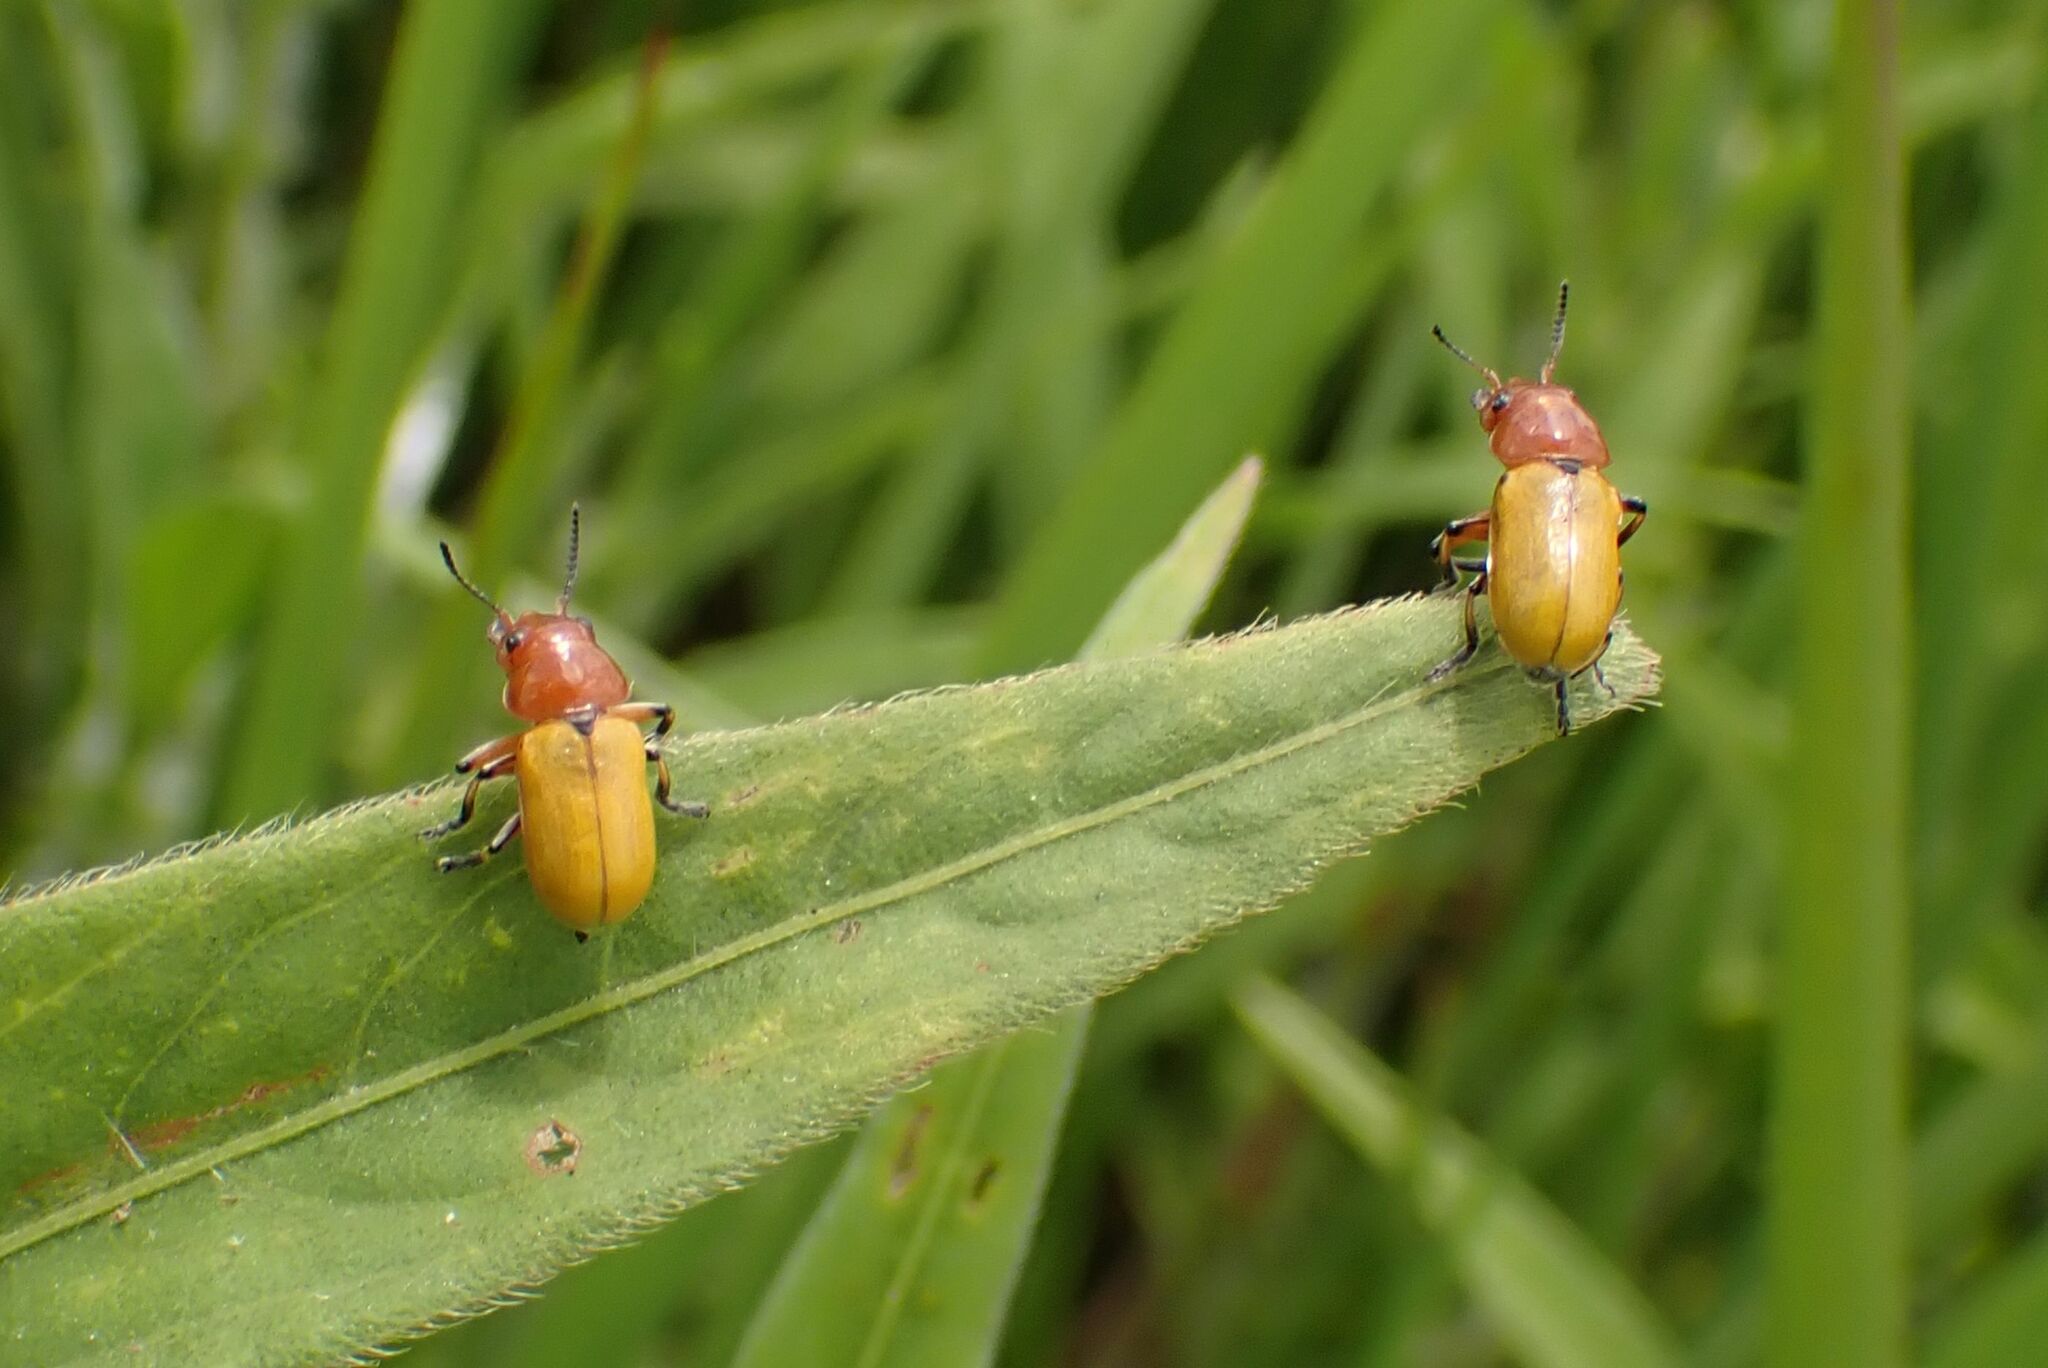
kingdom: Animalia
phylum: Arthropoda
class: Insecta
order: Coleoptera
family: Chrysomelidae
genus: Antipus
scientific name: Antipus rufus
